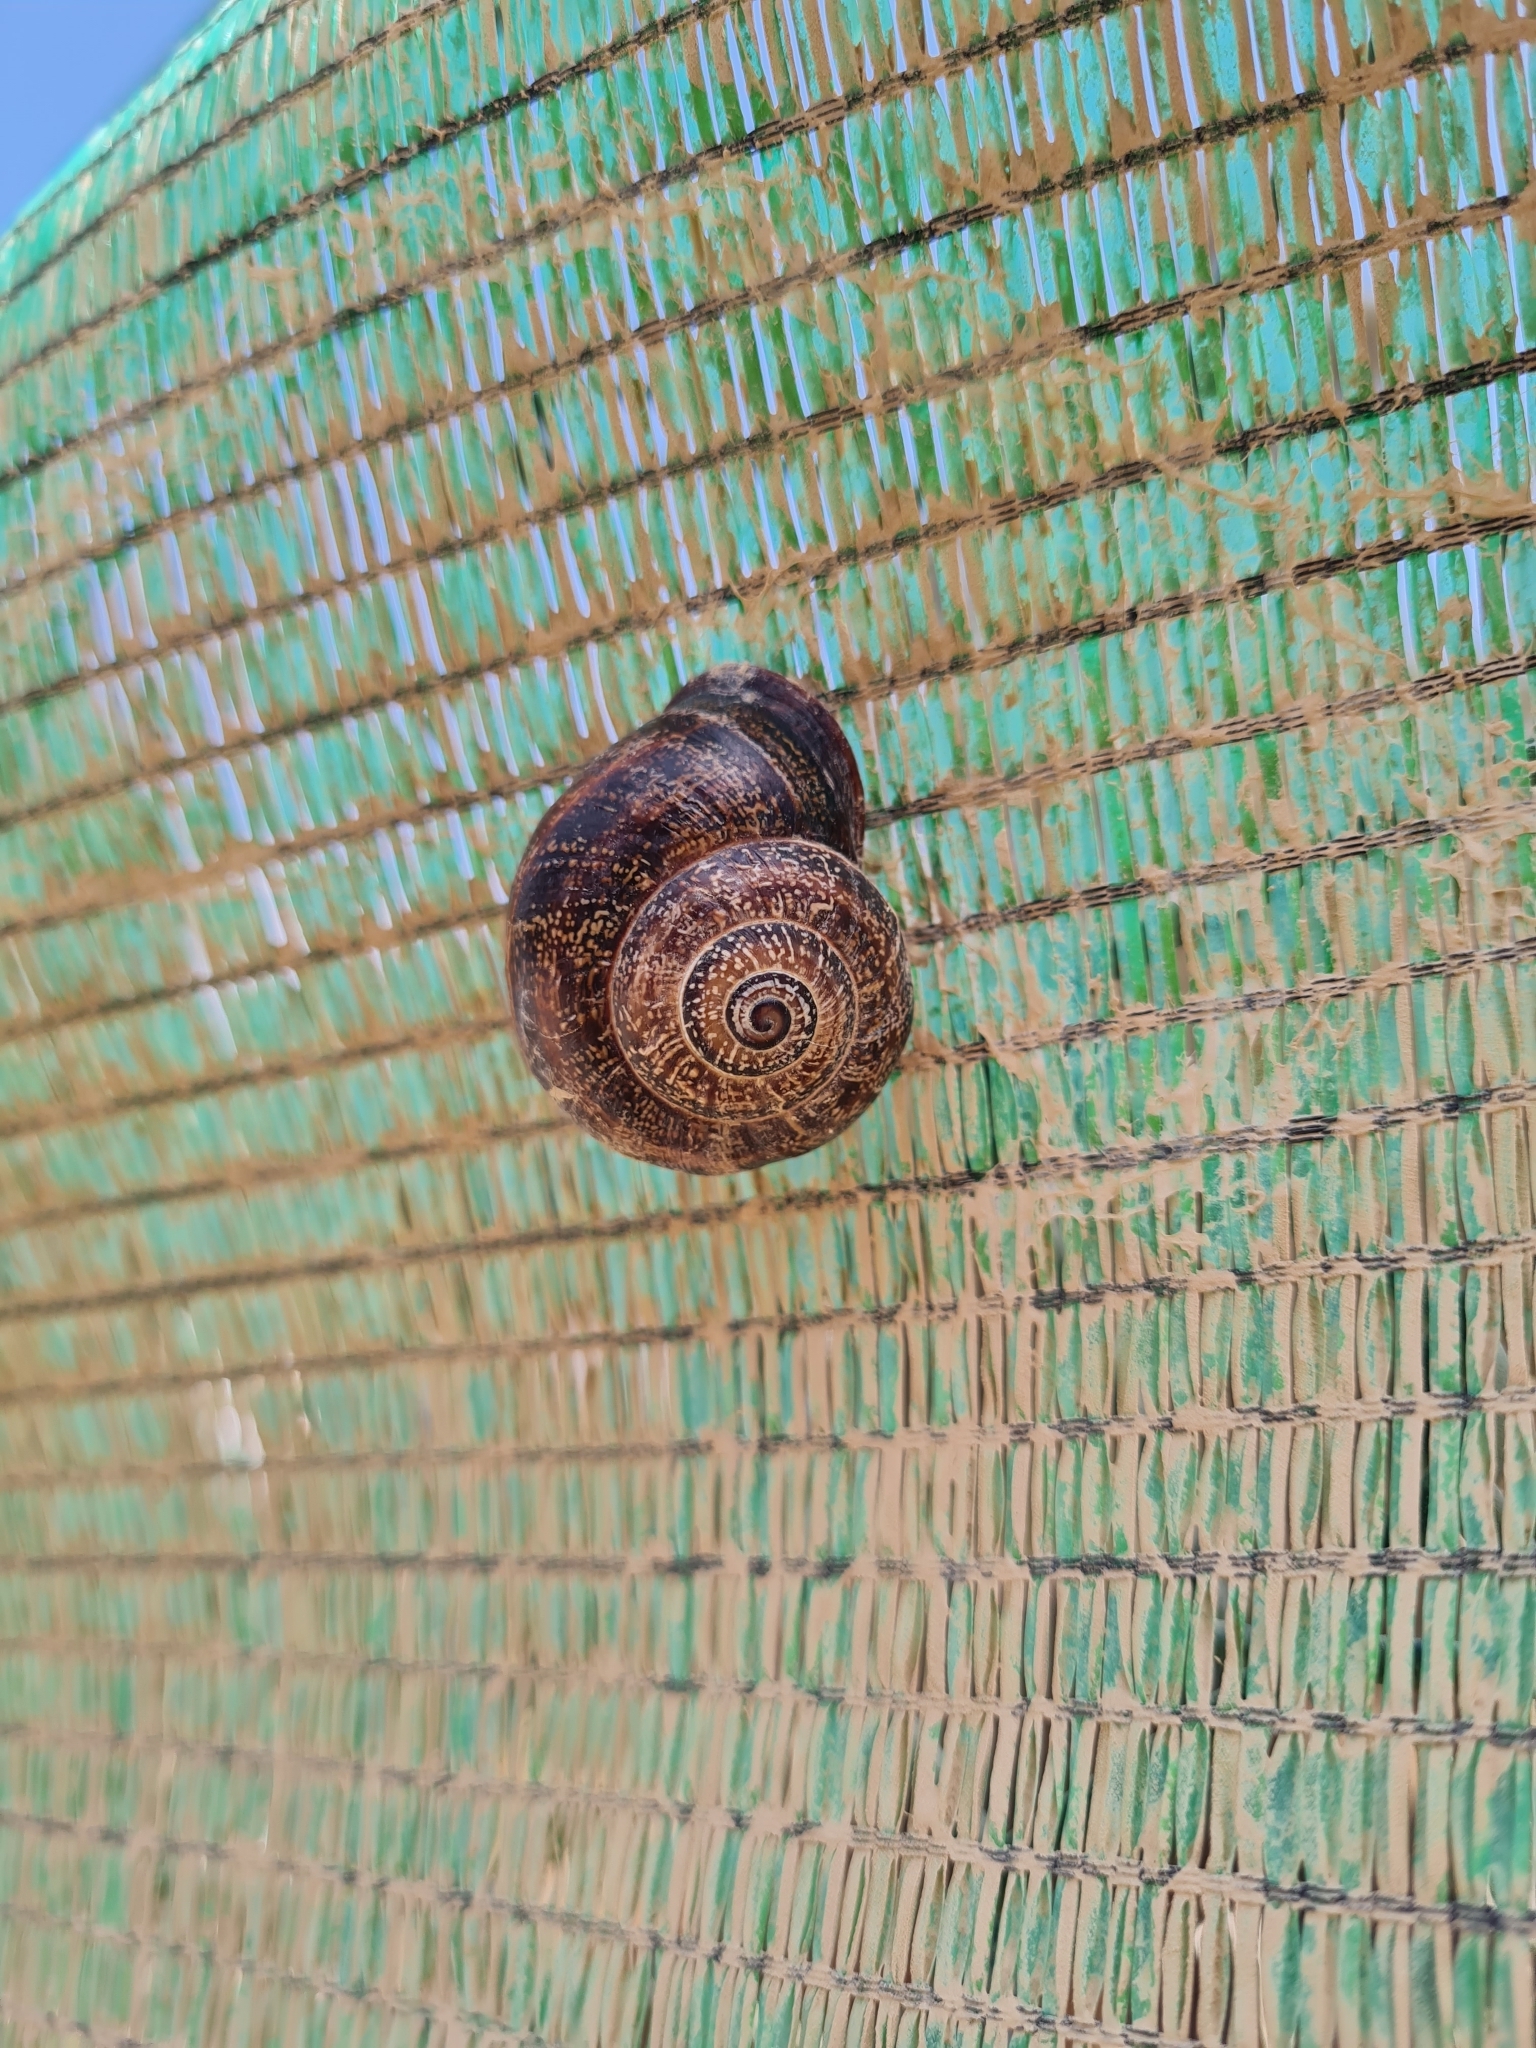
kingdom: Animalia
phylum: Mollusca
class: Gastropoda
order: Stylommatophora
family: Helicidae
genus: Otala
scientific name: Otala punctata
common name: Milk snail
